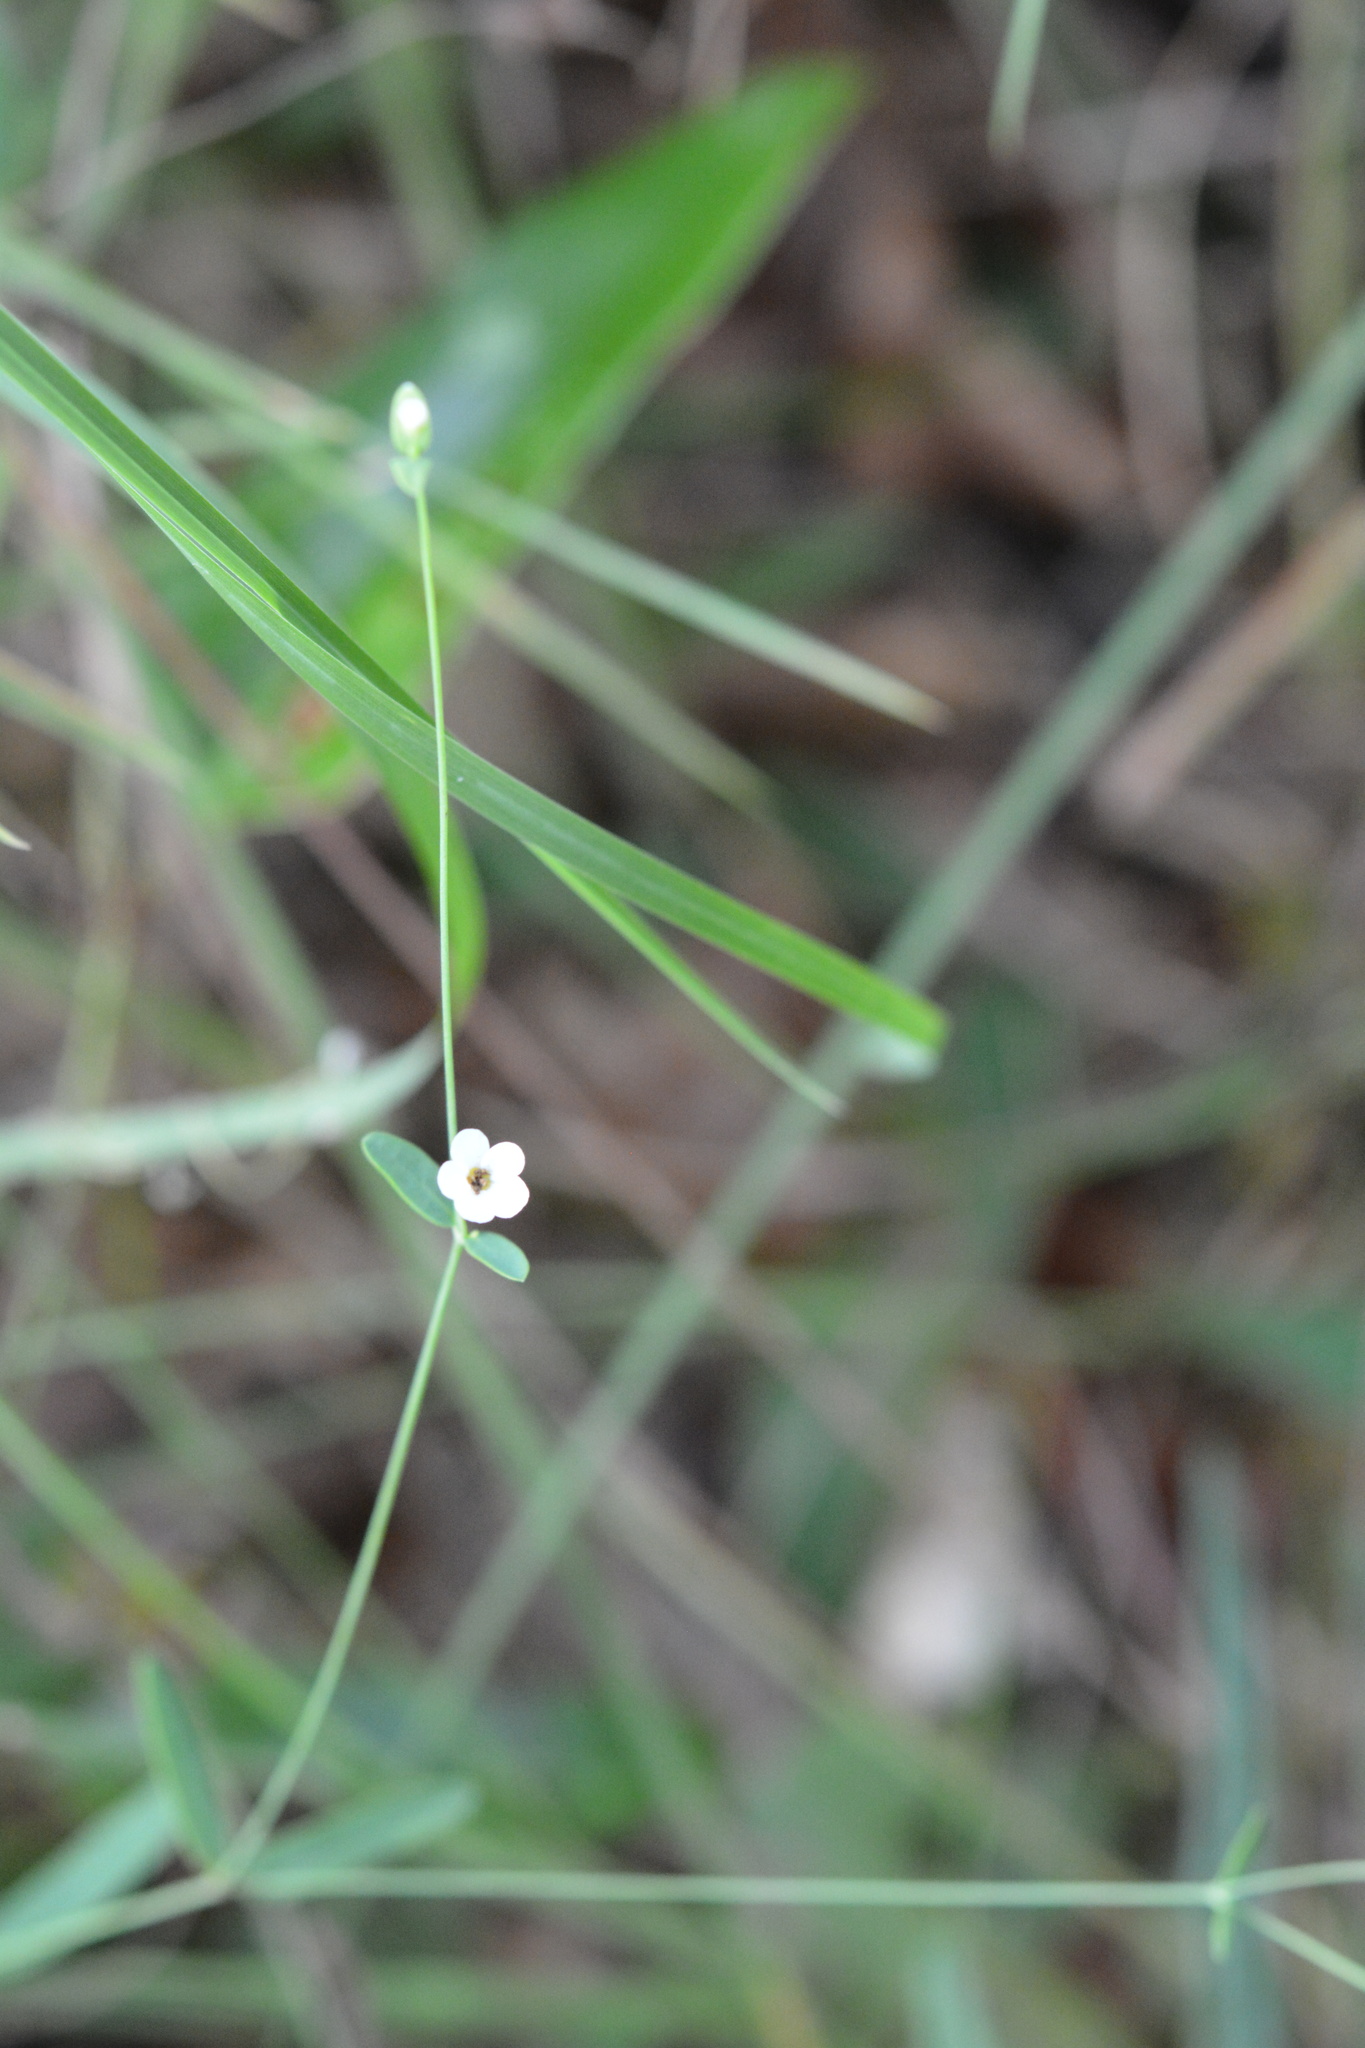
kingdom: Plantae
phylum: Tracheophyta
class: Magnoliopsida
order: Malpighiales
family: Euphorbiaceae
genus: Euphorbia
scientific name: Euphorbia corollata
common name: Flowering spurge
